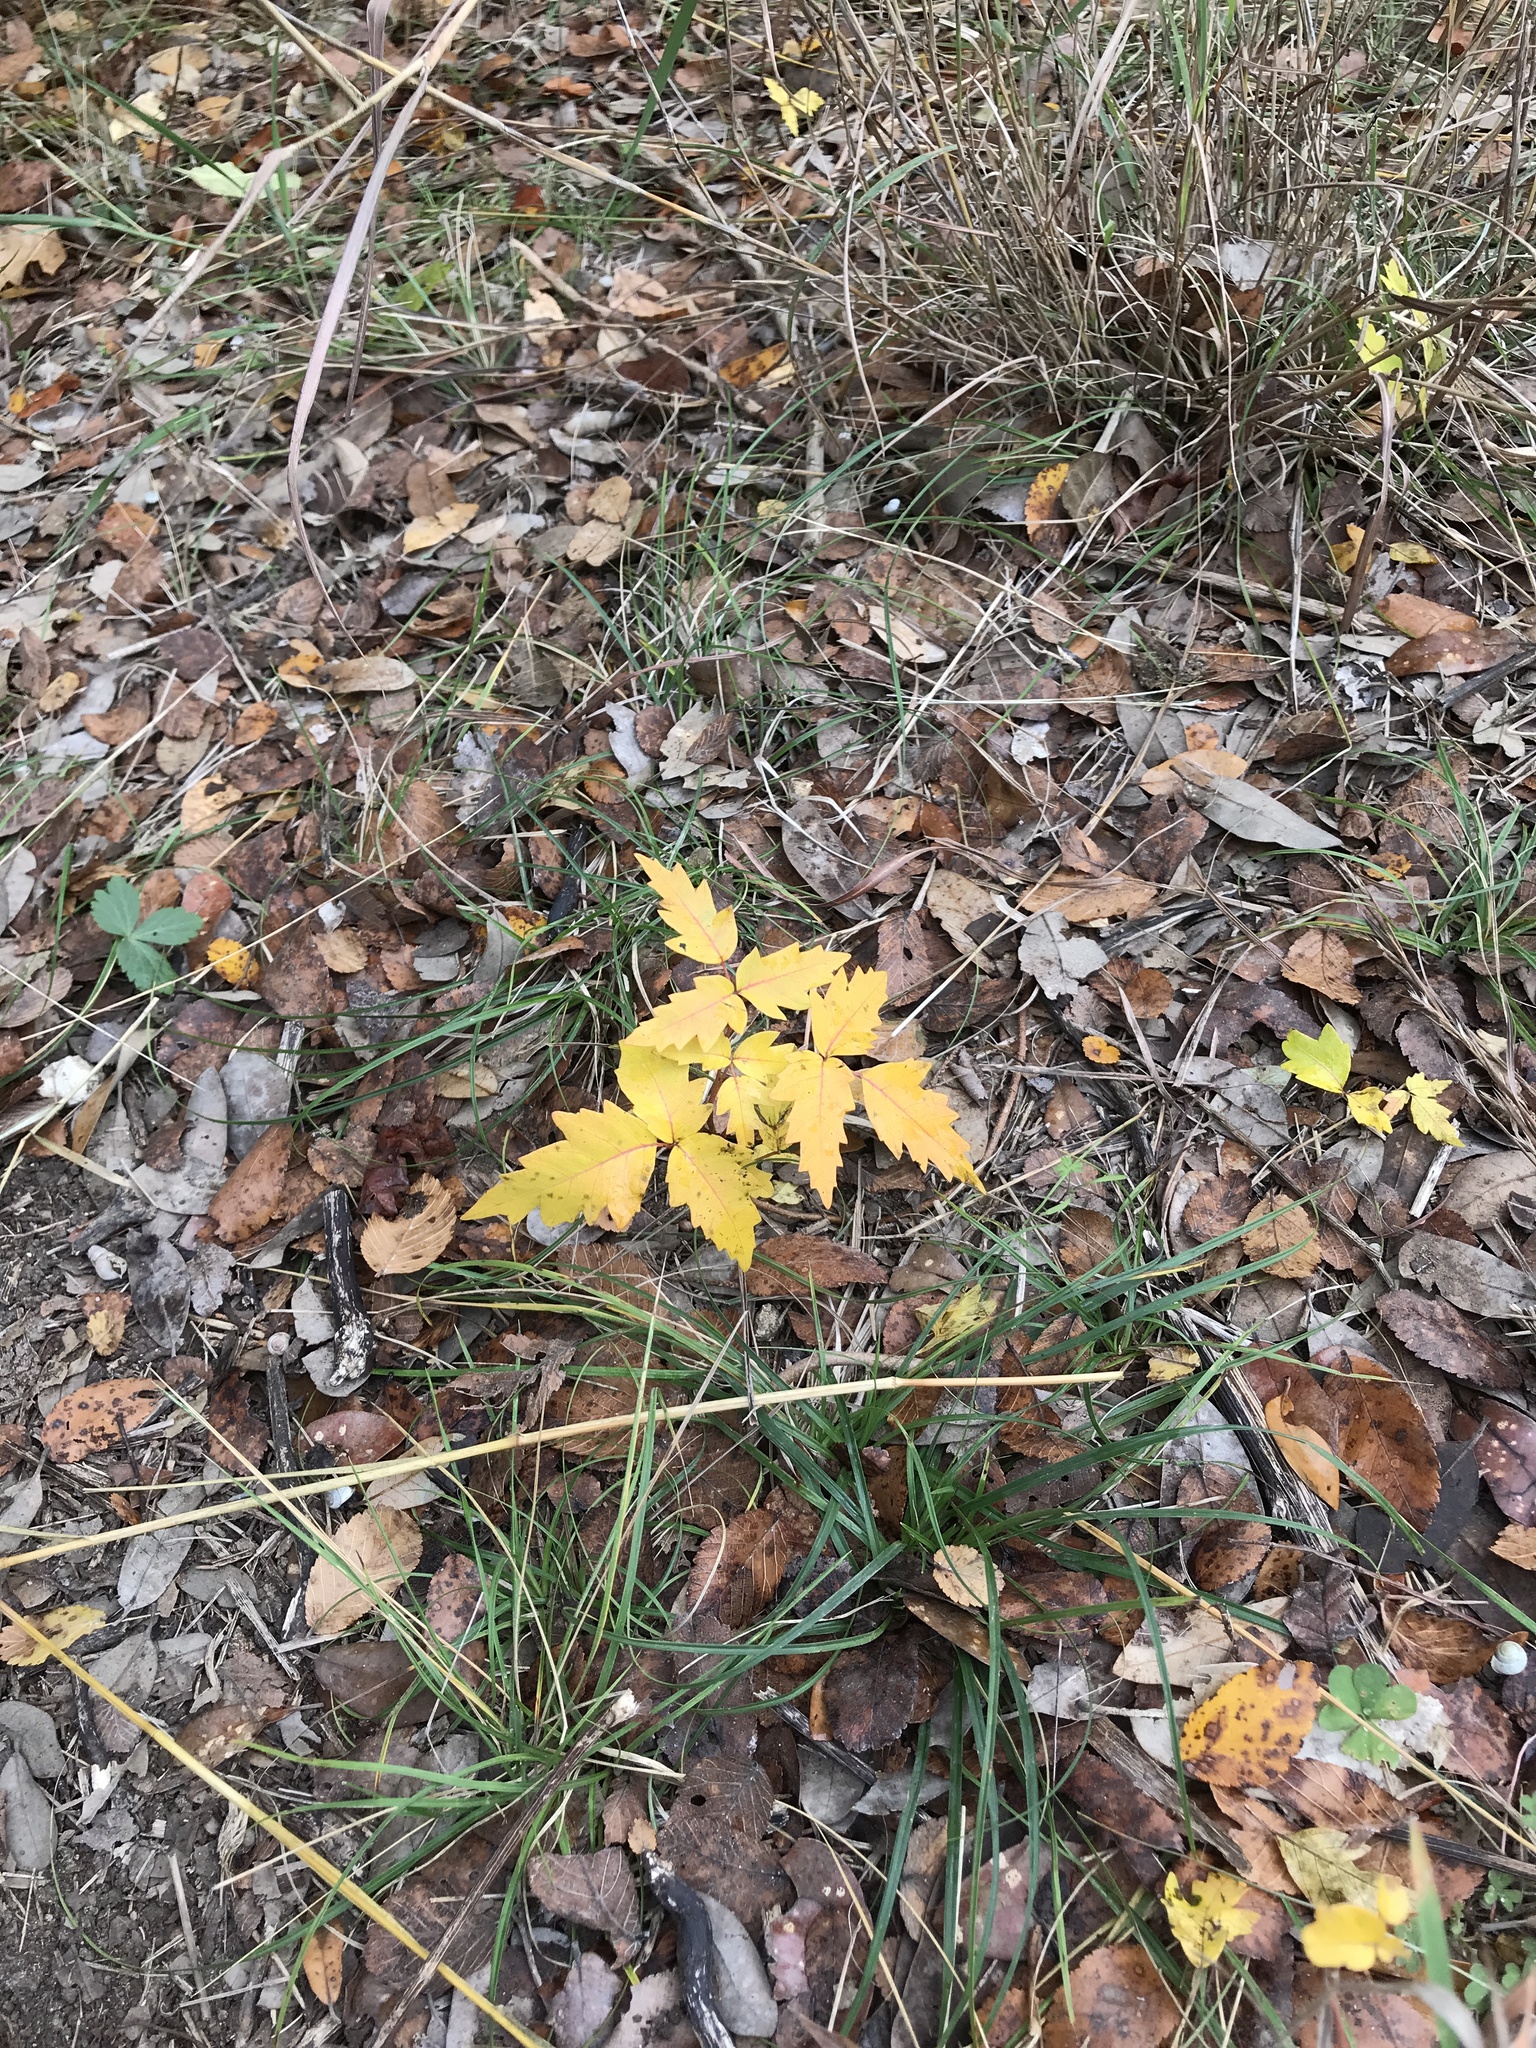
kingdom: Plantae
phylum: Tracheophyta
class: Magnoliopsida
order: Sapindales
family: Anacardiaceae
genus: Toxicodendron
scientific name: Toxicodendron radicans
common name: Poison ivy
